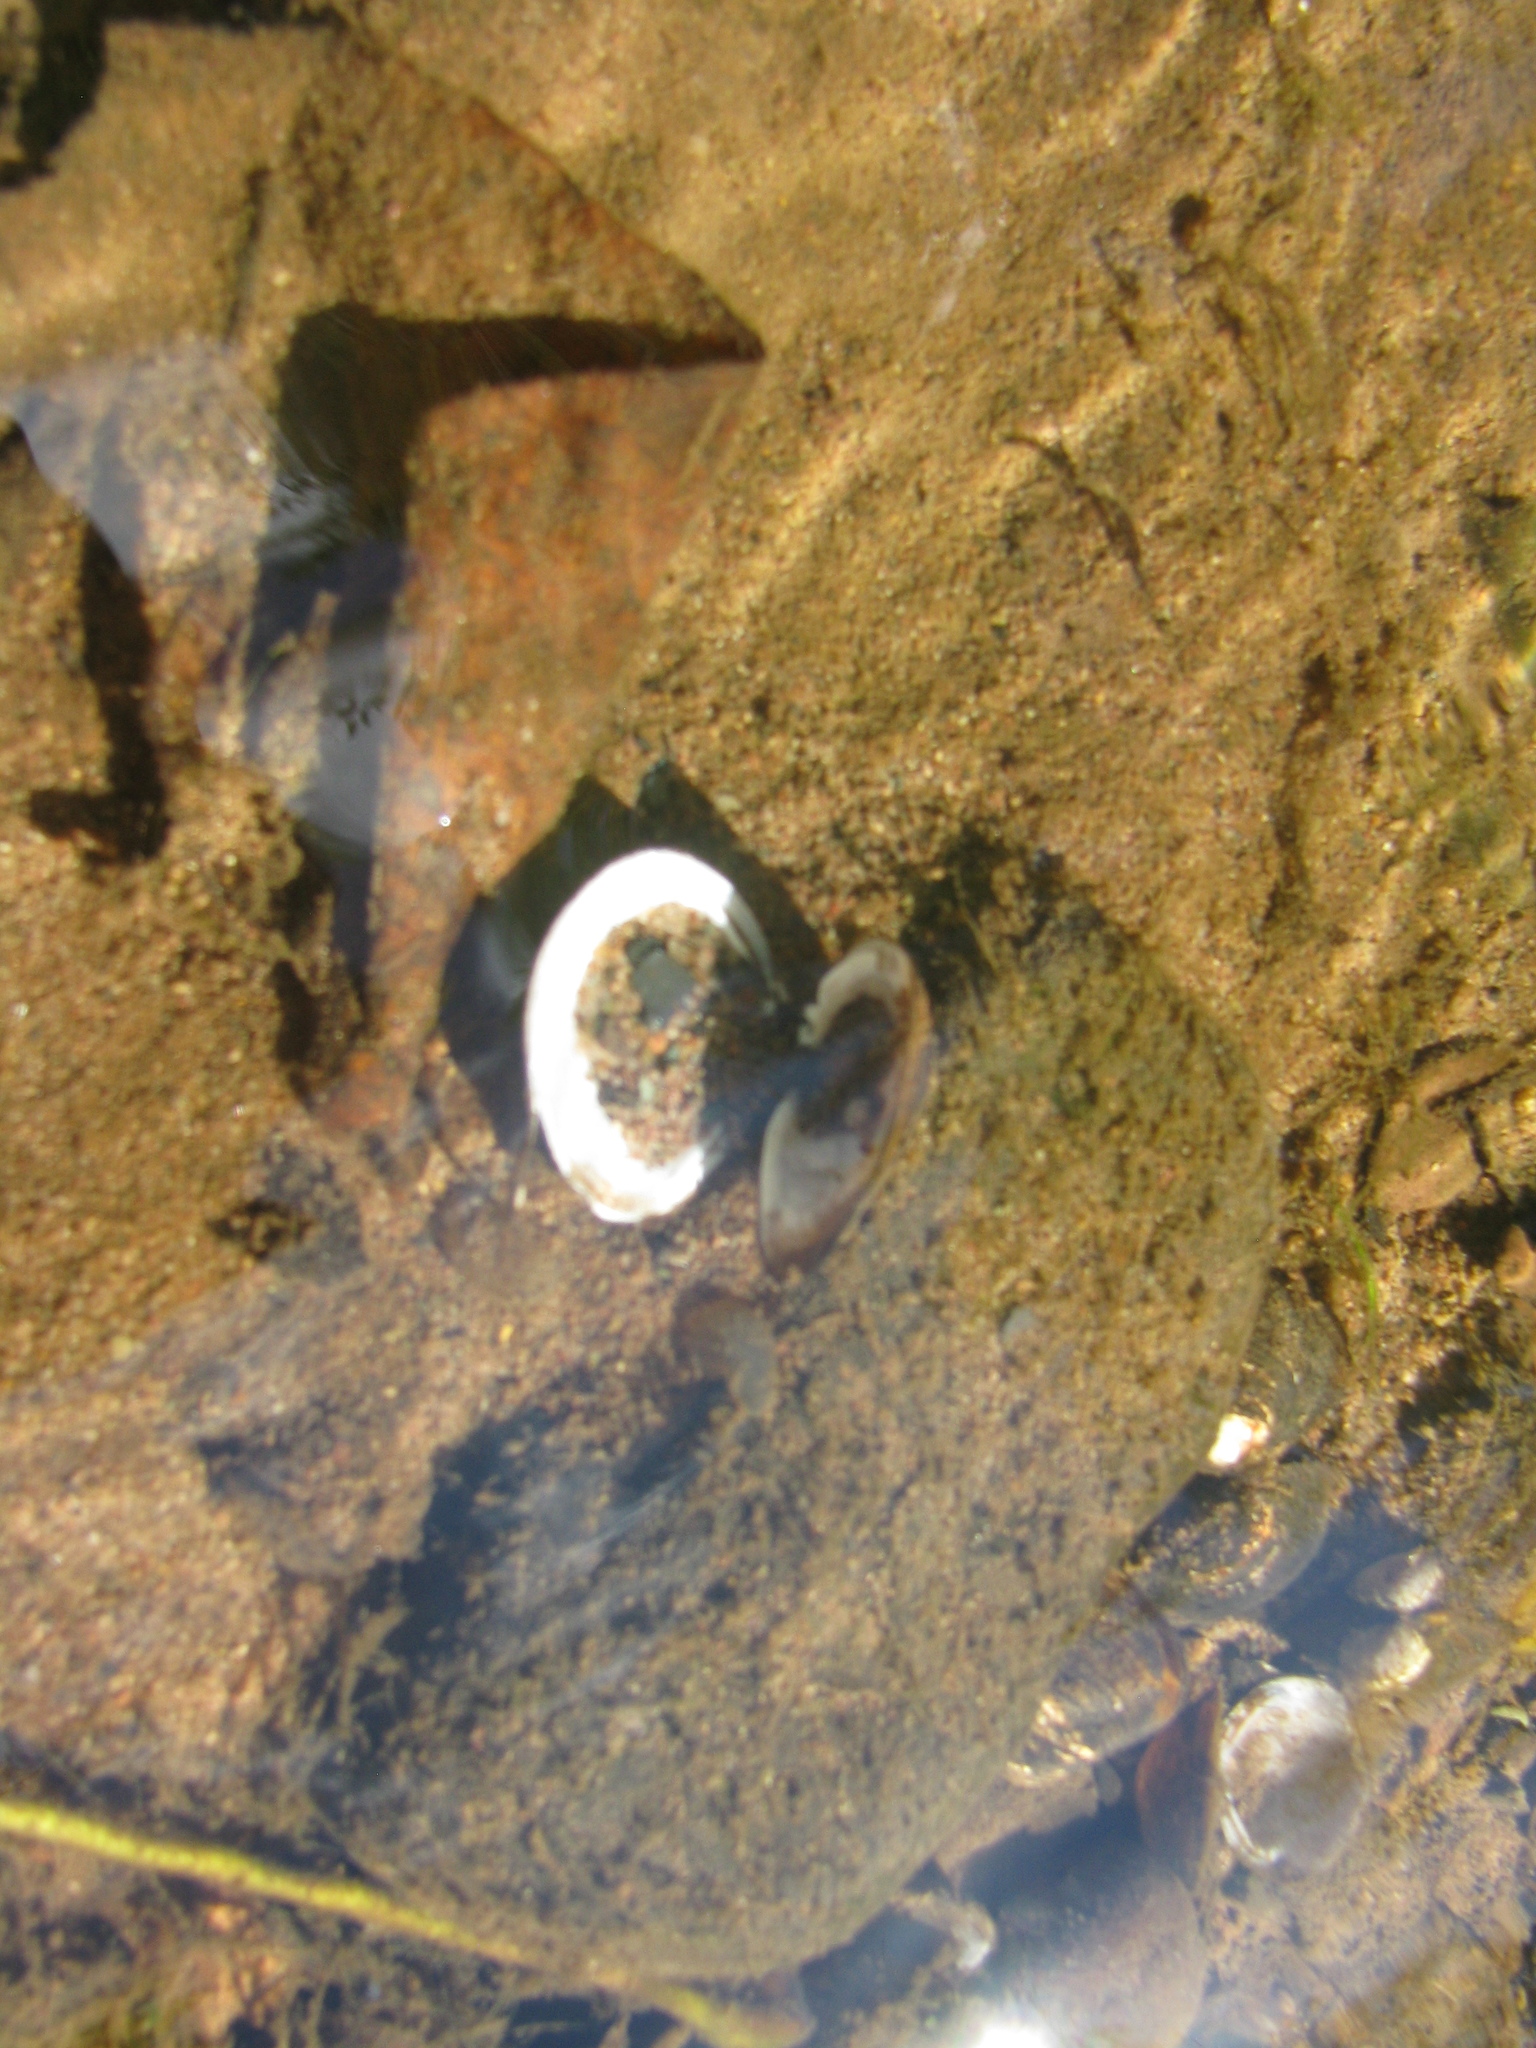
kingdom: Animalia
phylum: Mollusca
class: Bivalvia
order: Venerida
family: Cyrenidae
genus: Corbicula
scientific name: Corbicula fluminea
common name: Asian clam
